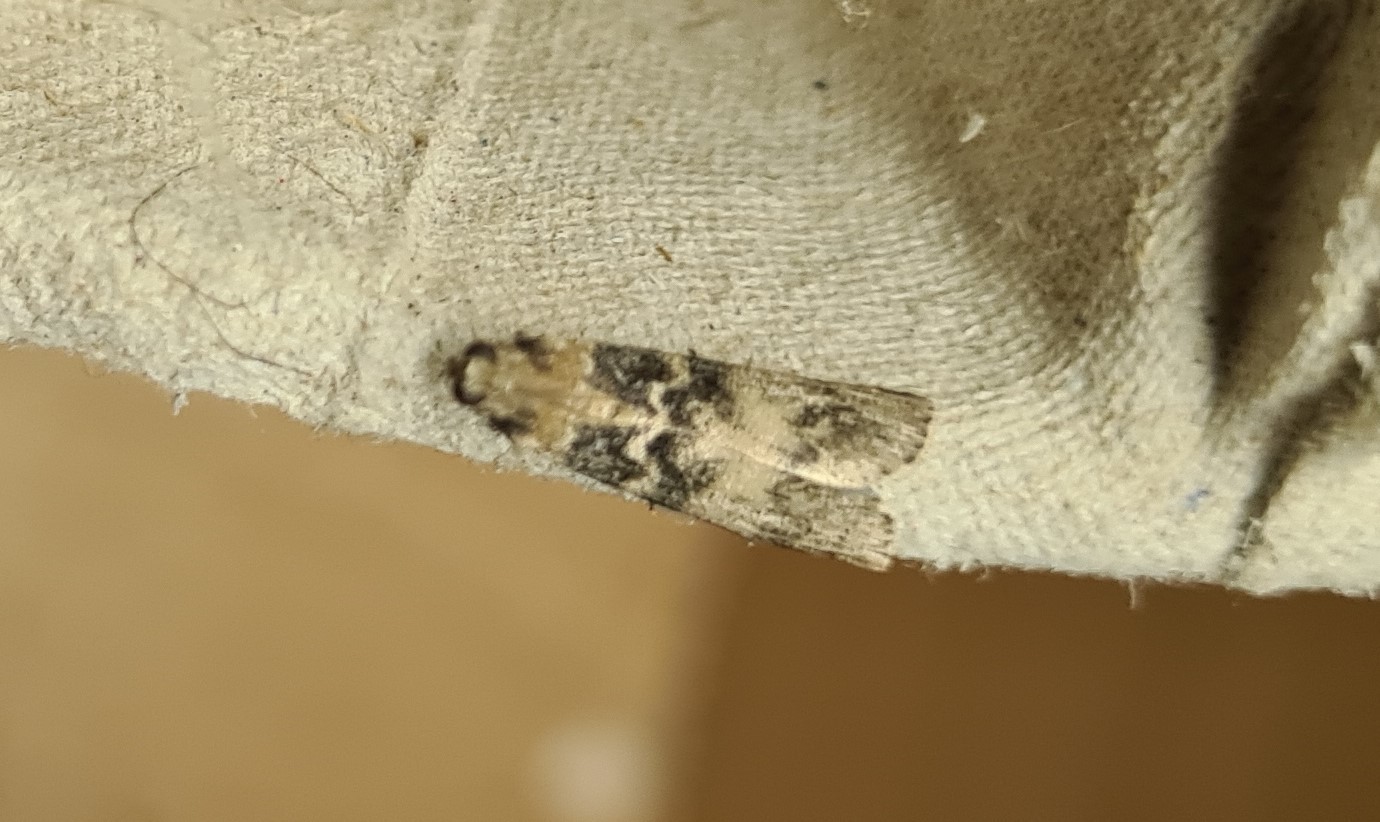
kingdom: Animalia
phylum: Arthropoda
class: Insecta
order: Lepidoptera
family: Pyralidae
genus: Euzophera
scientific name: Euzophera pinguis
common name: Ash-bark knot-horn
